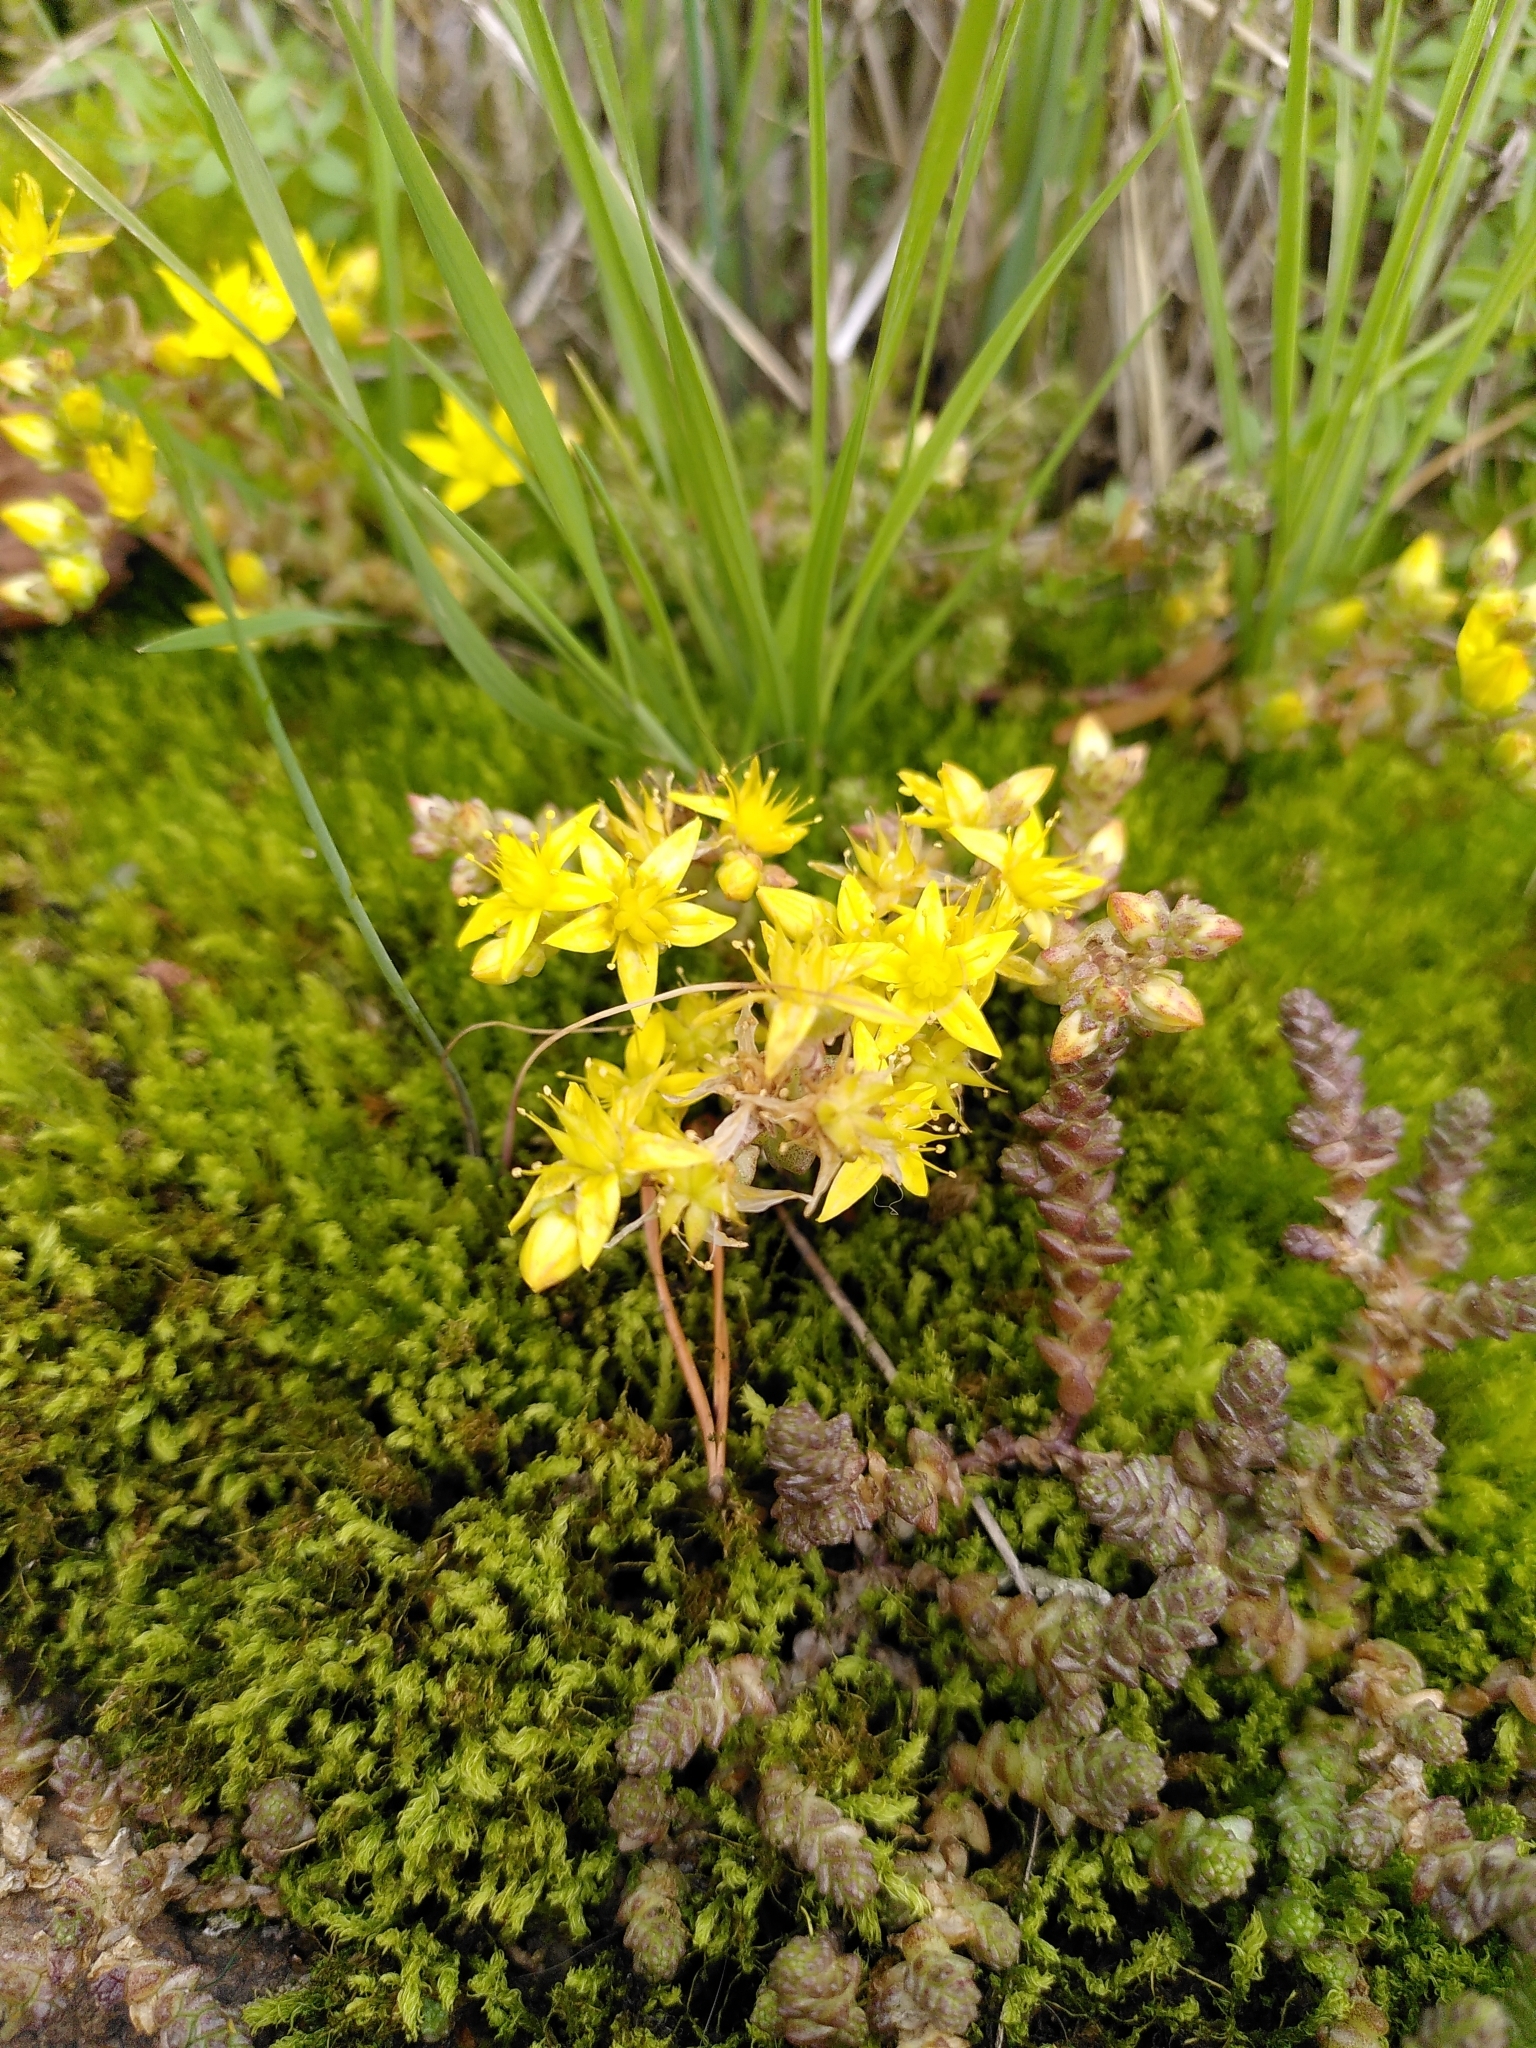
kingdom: Plantae
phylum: Tracheophyta
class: Magnoliopsida
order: Saxifragales
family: Crassulaceae
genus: Sedum
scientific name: Sedum acre
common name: Biting stonecrop
